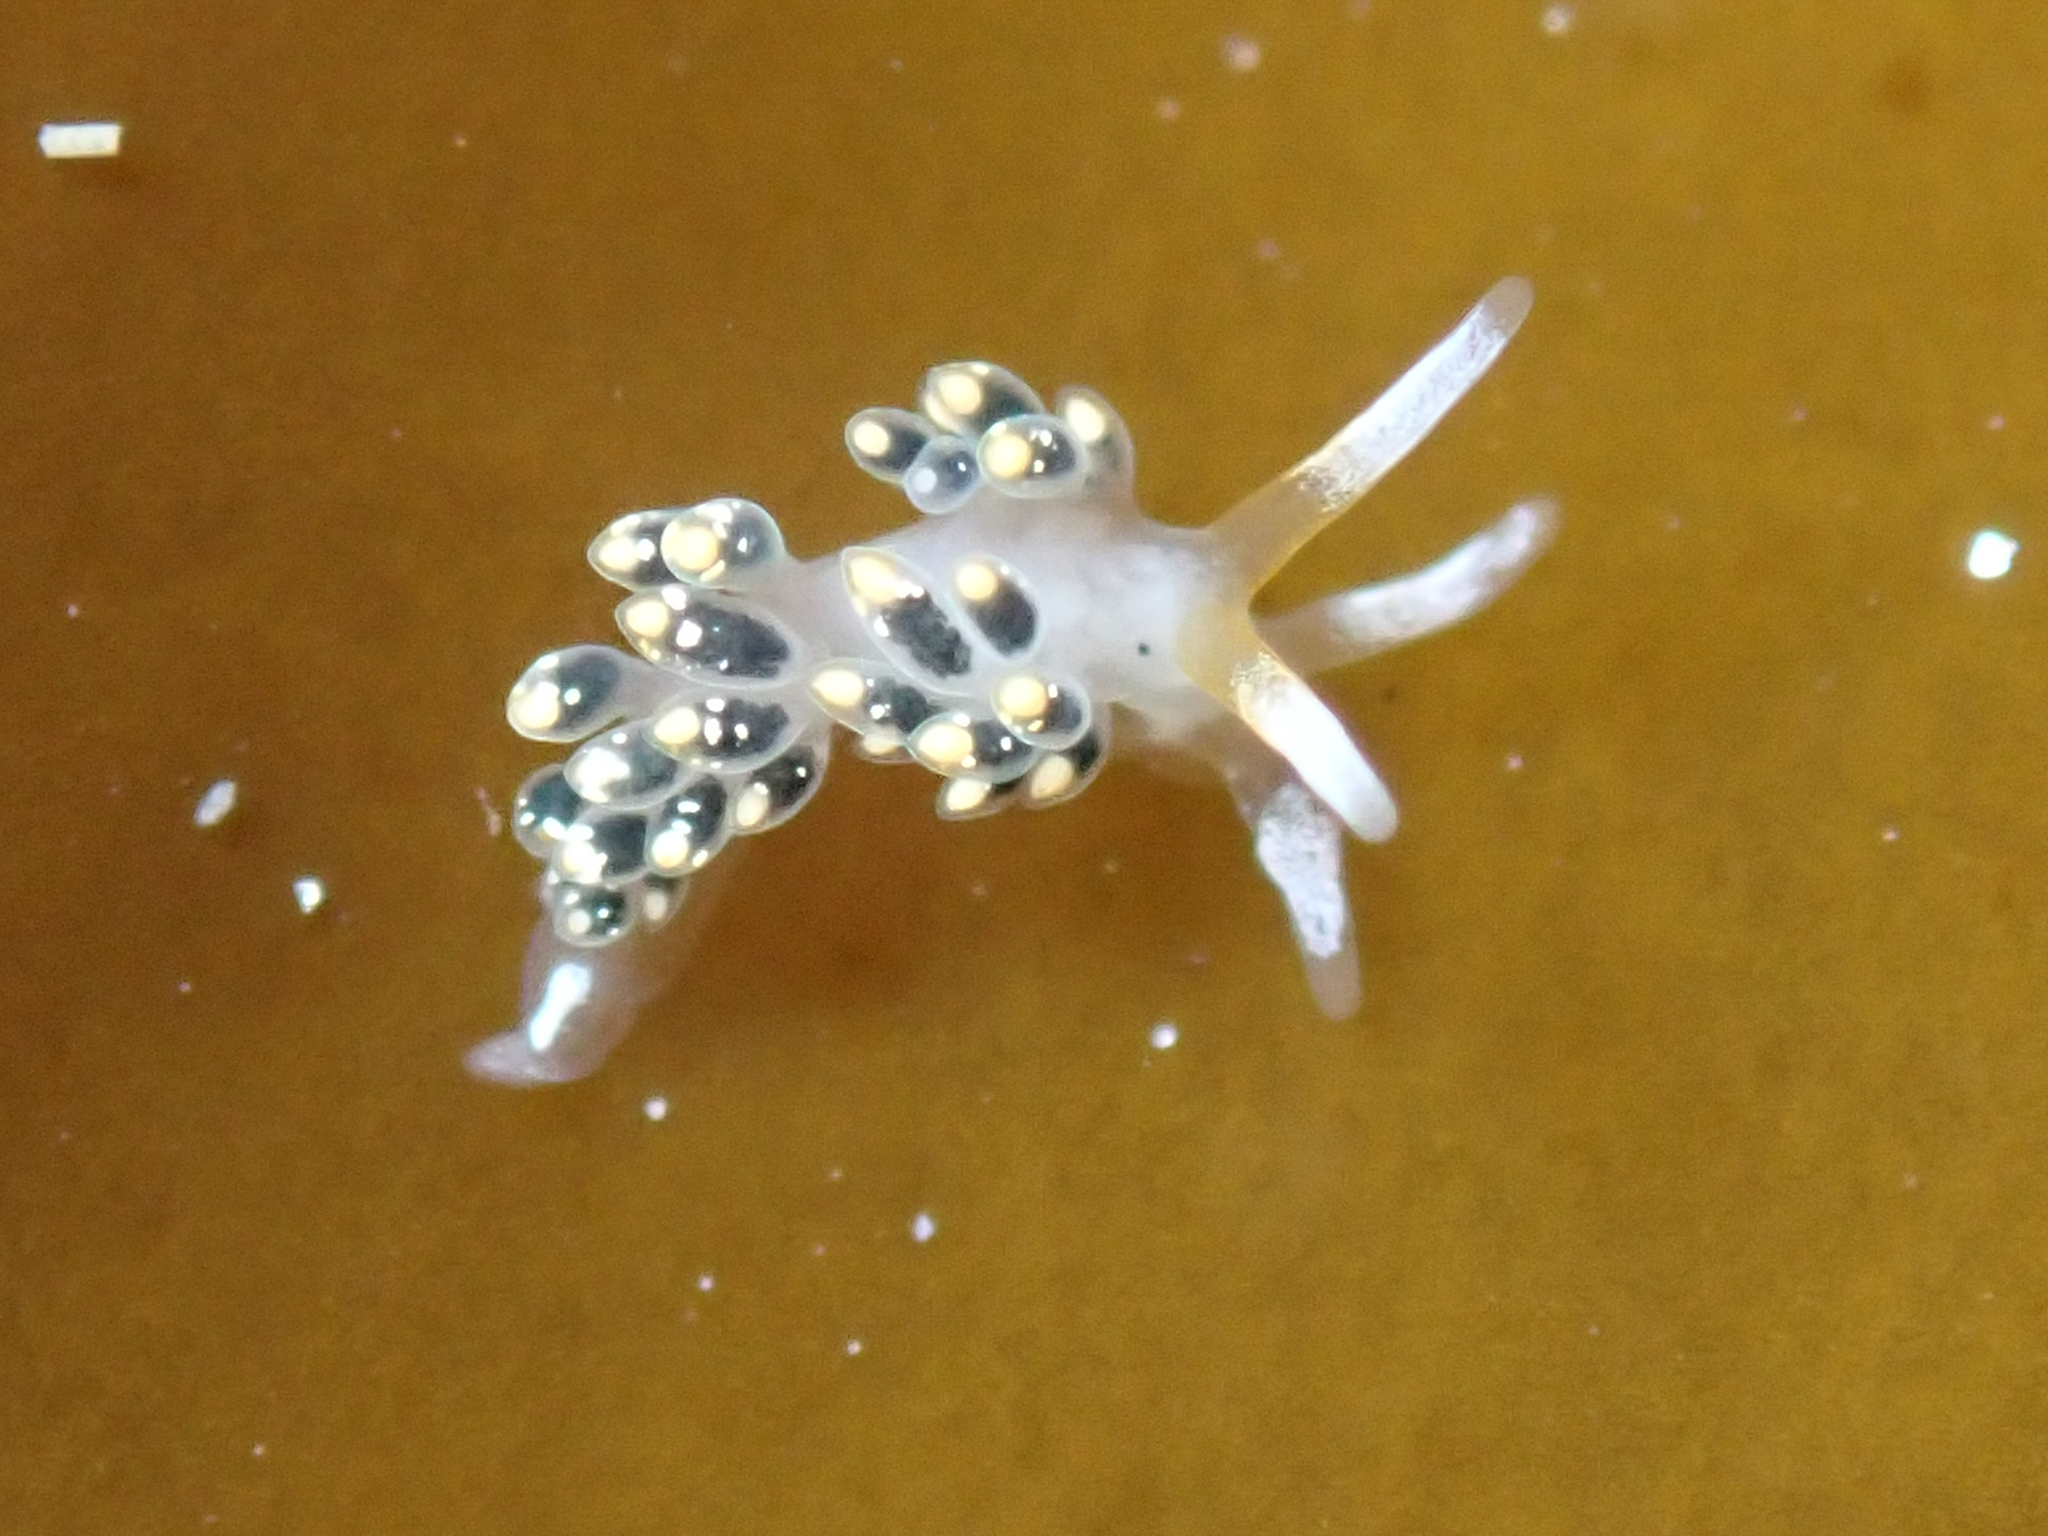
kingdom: Animalia
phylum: Mollusca
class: Gastropoda
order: Nudibranchia
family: Trinchesiidae
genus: Diaphoreolis
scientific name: Diaphoreolis flavovulta
